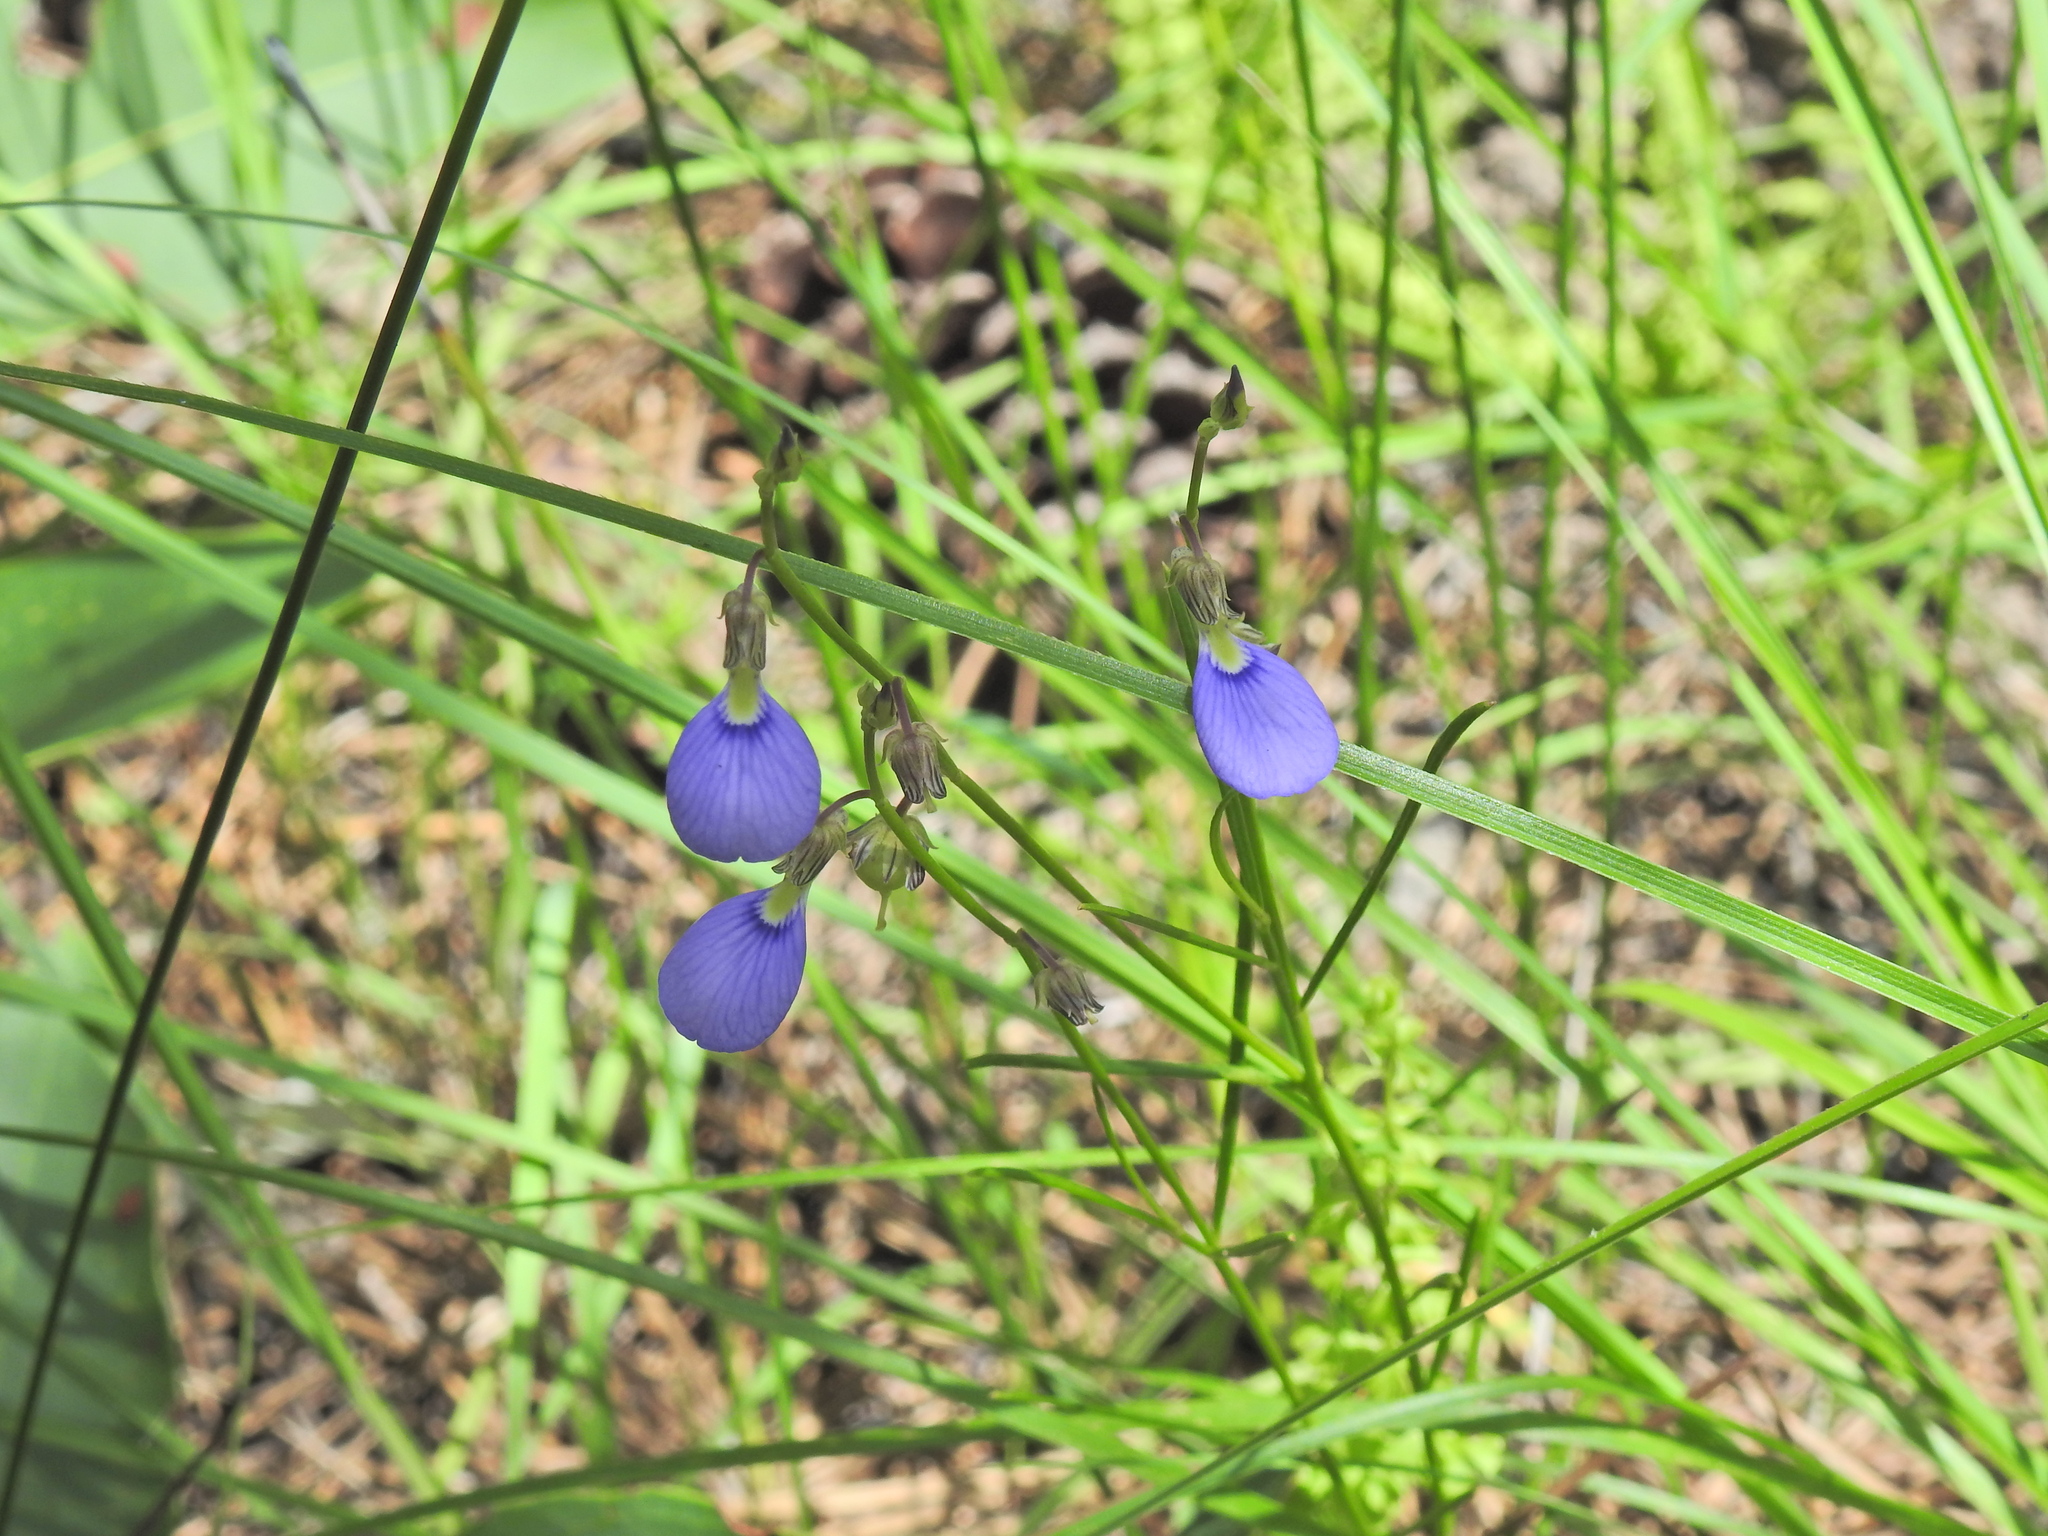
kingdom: Plantae
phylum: Tracheophyta
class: Magnoliopsida
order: Malpighiales
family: Violaceae
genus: Pigea
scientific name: Pigea monopetala
